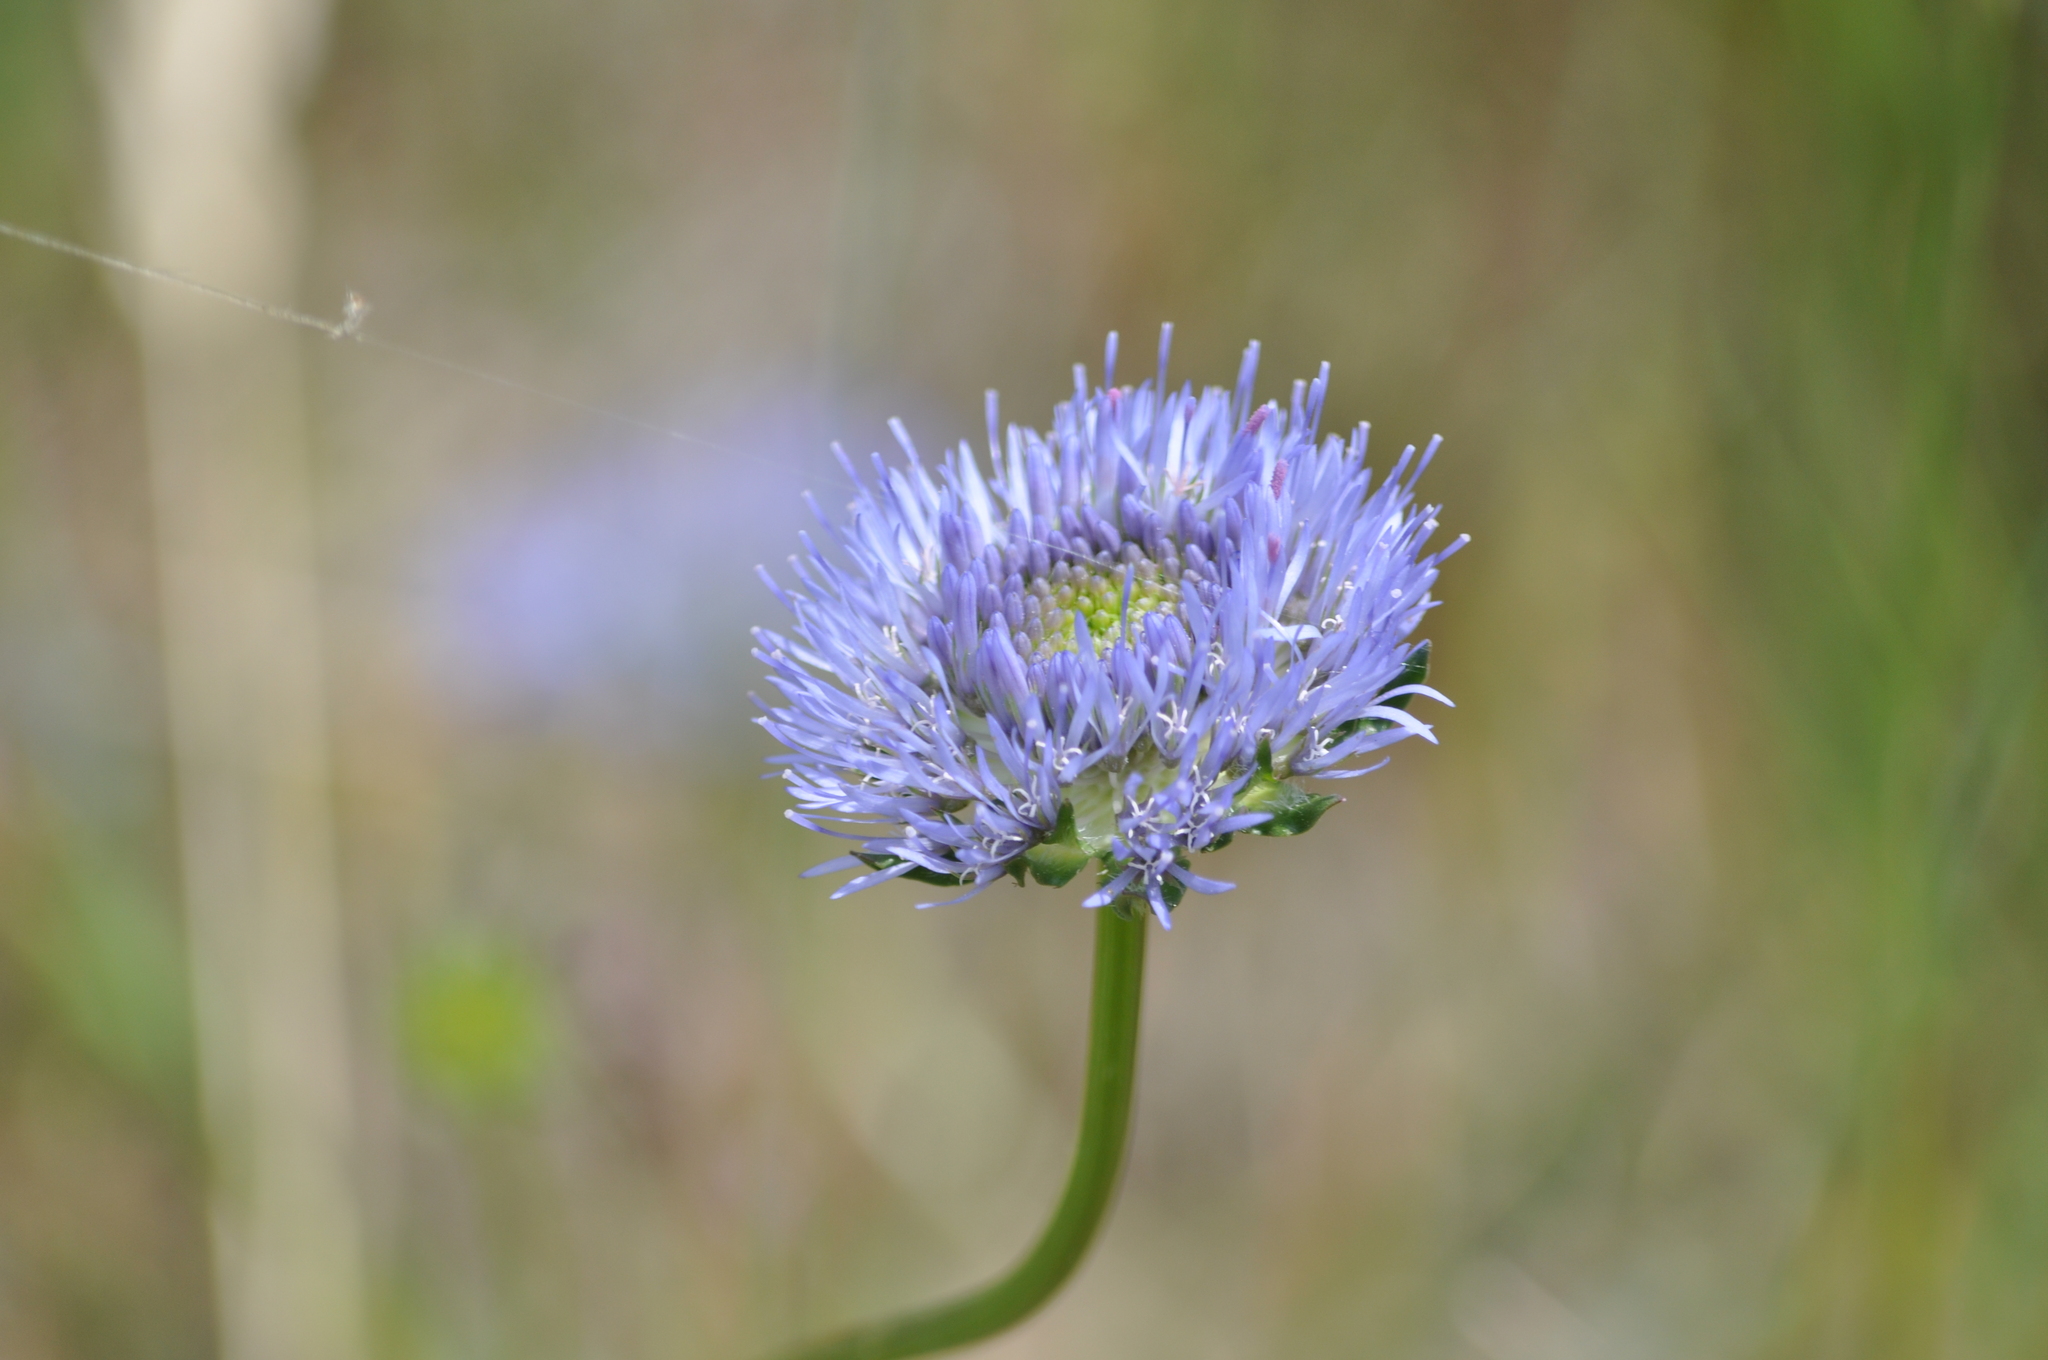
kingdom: Plantae
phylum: Tracheophyta
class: Magnoliopsida
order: Asterales
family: Campanulaceae
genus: Jasione
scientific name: Jasione montana
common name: Sheep's-bit
